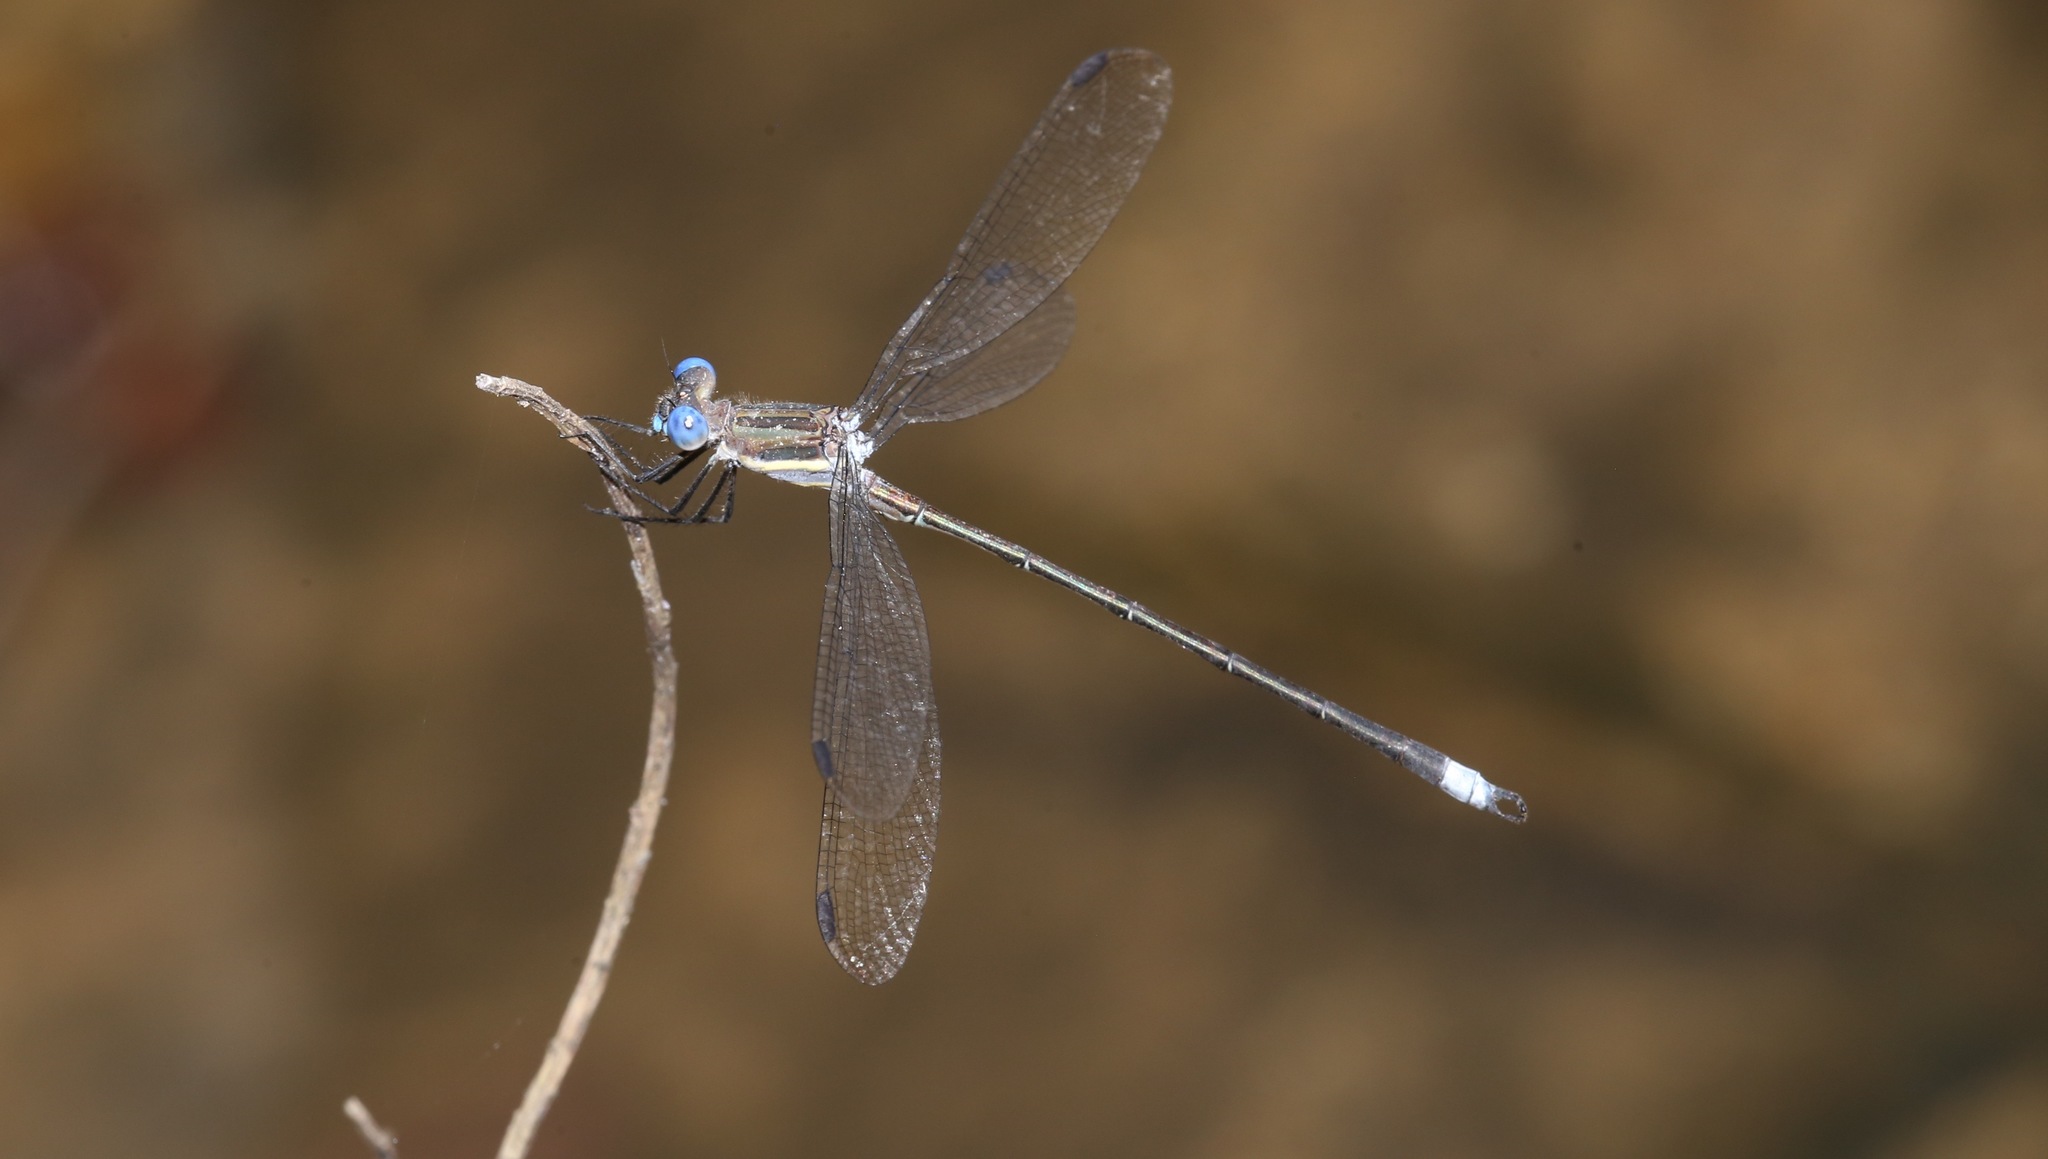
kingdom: Animalia
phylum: Arthropoda
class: Insecta
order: Odonata
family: Lestidae
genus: Archilestes
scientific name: Archilestes grandis
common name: Great spreadwing
